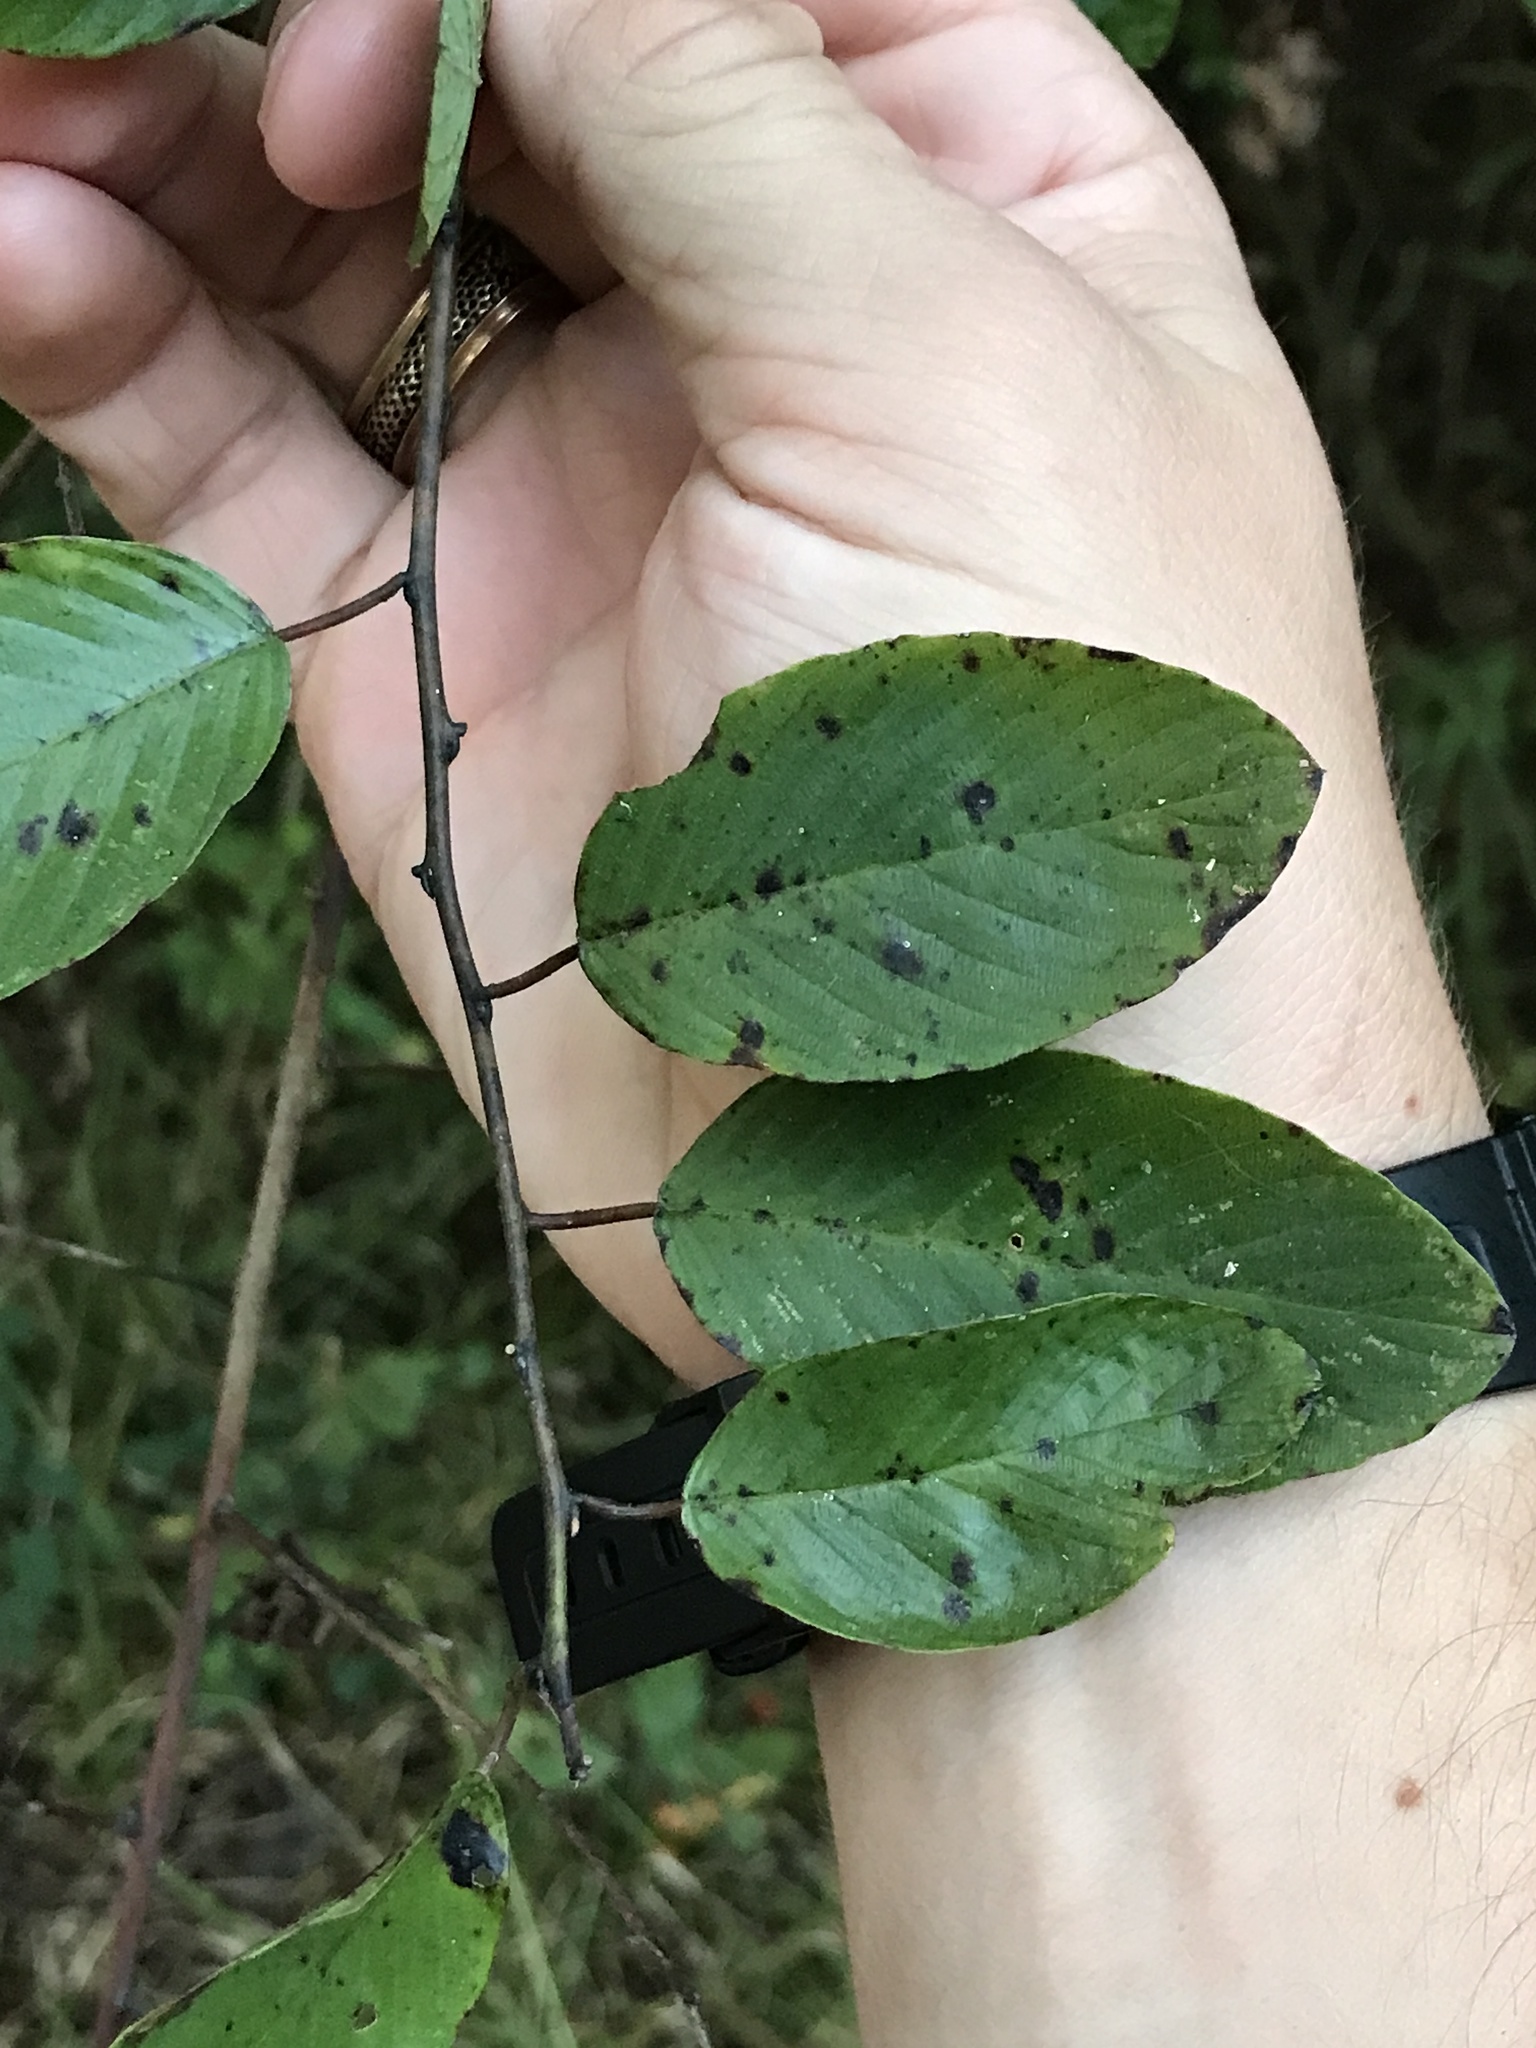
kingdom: Plantae
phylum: Tracheophyta
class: Magnoliopsida
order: Rosales
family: Rhamnaceae
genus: Berchemia
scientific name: Berchemia scandens
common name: Supplejack
